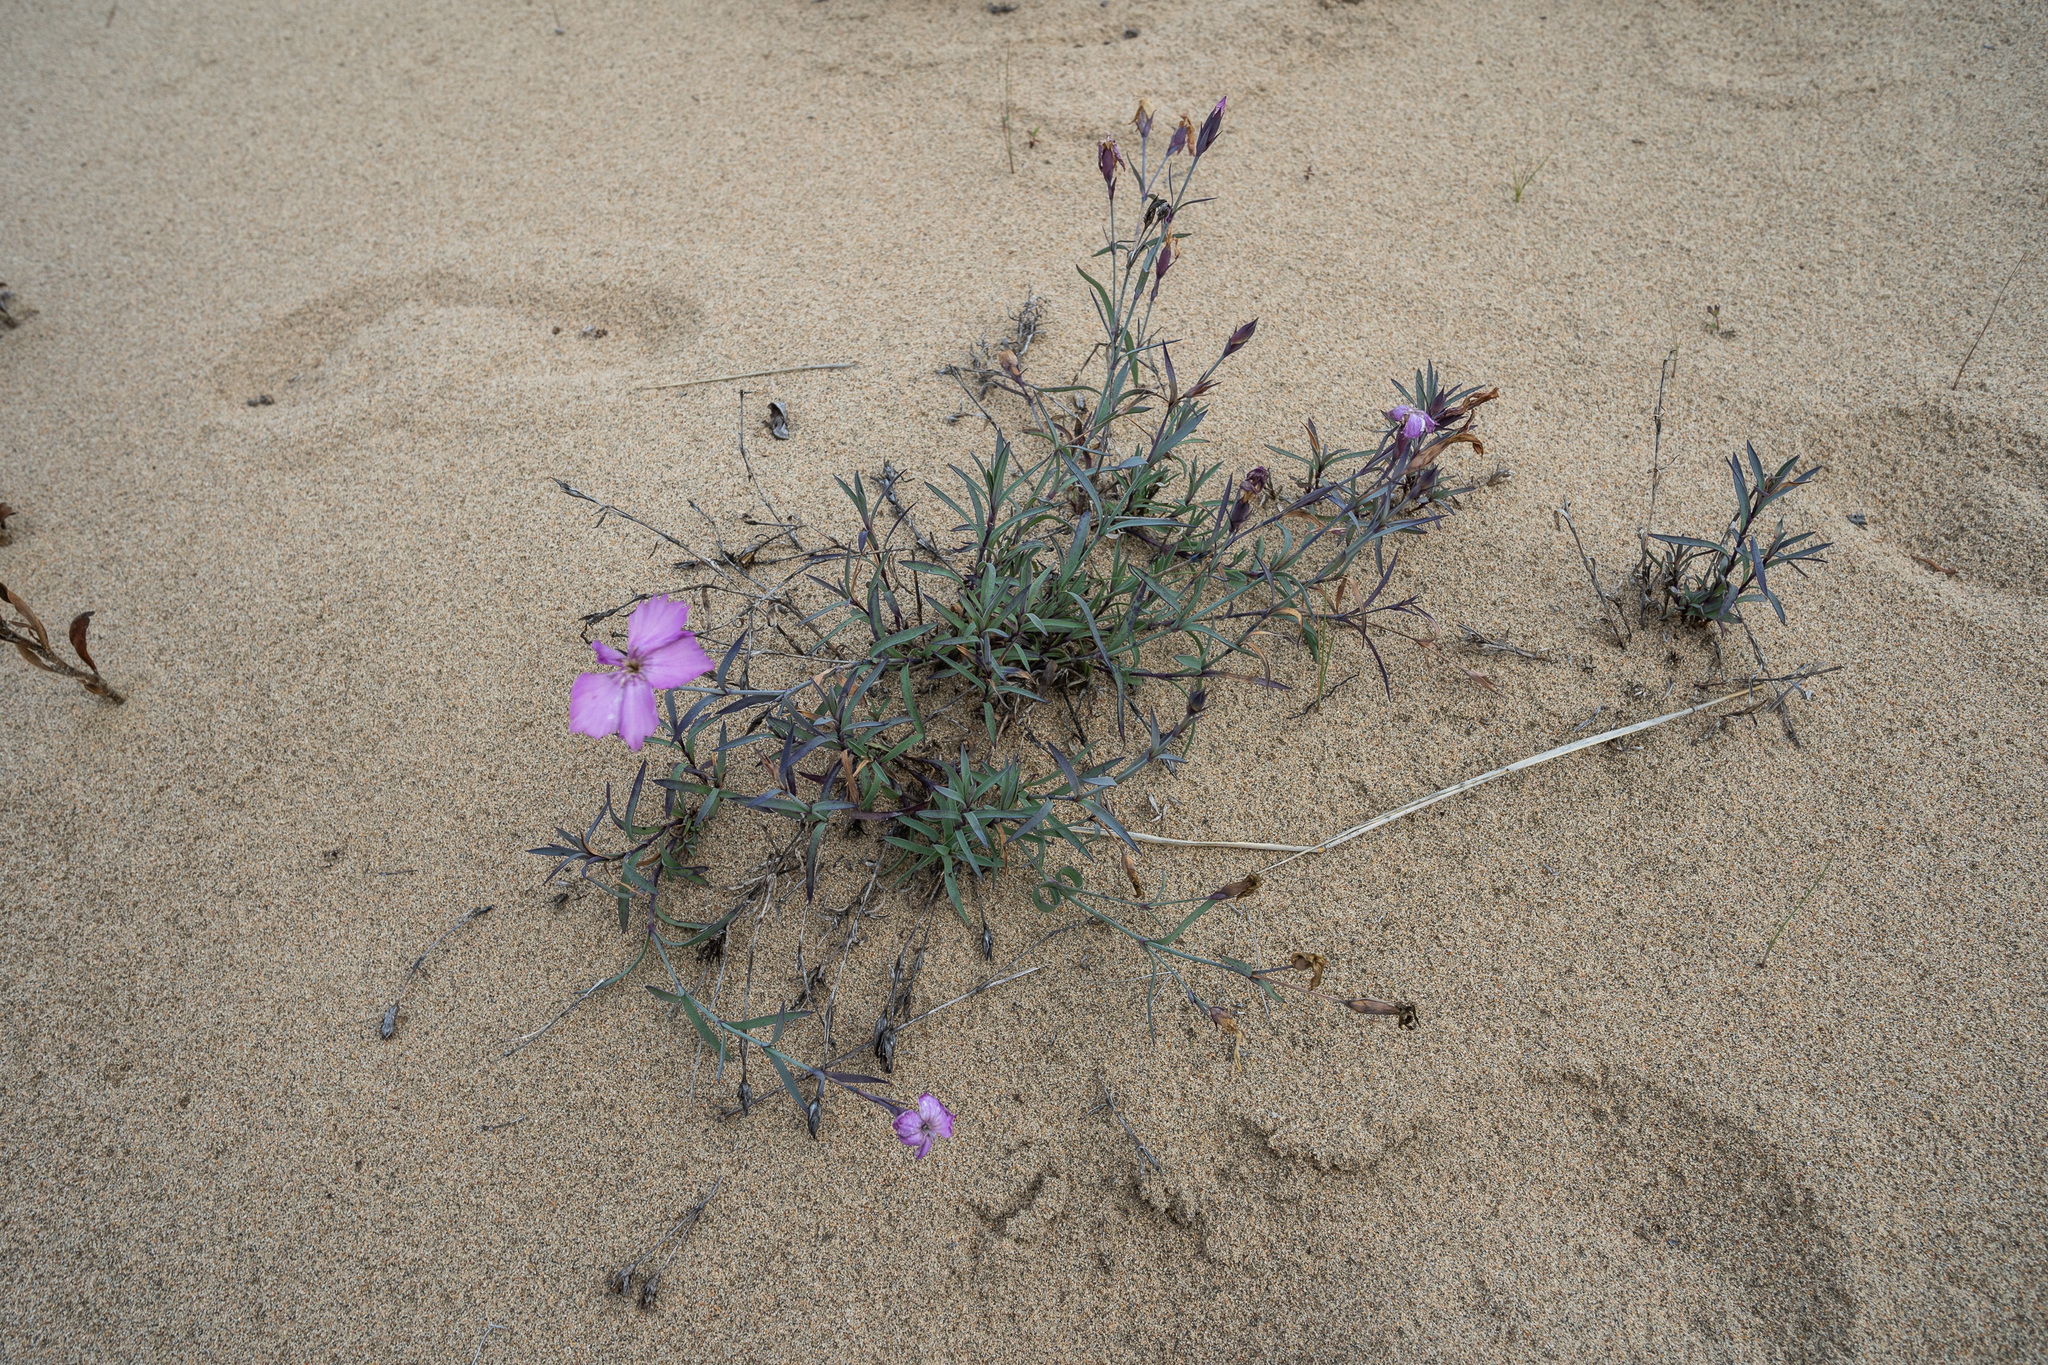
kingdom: Plantae
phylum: Tracheophyta
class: Magnoliopsida
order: Caryophyllales
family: Caryophyllaceae
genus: Dianthus
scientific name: Dianthus chinensis
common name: Rainbow pink
